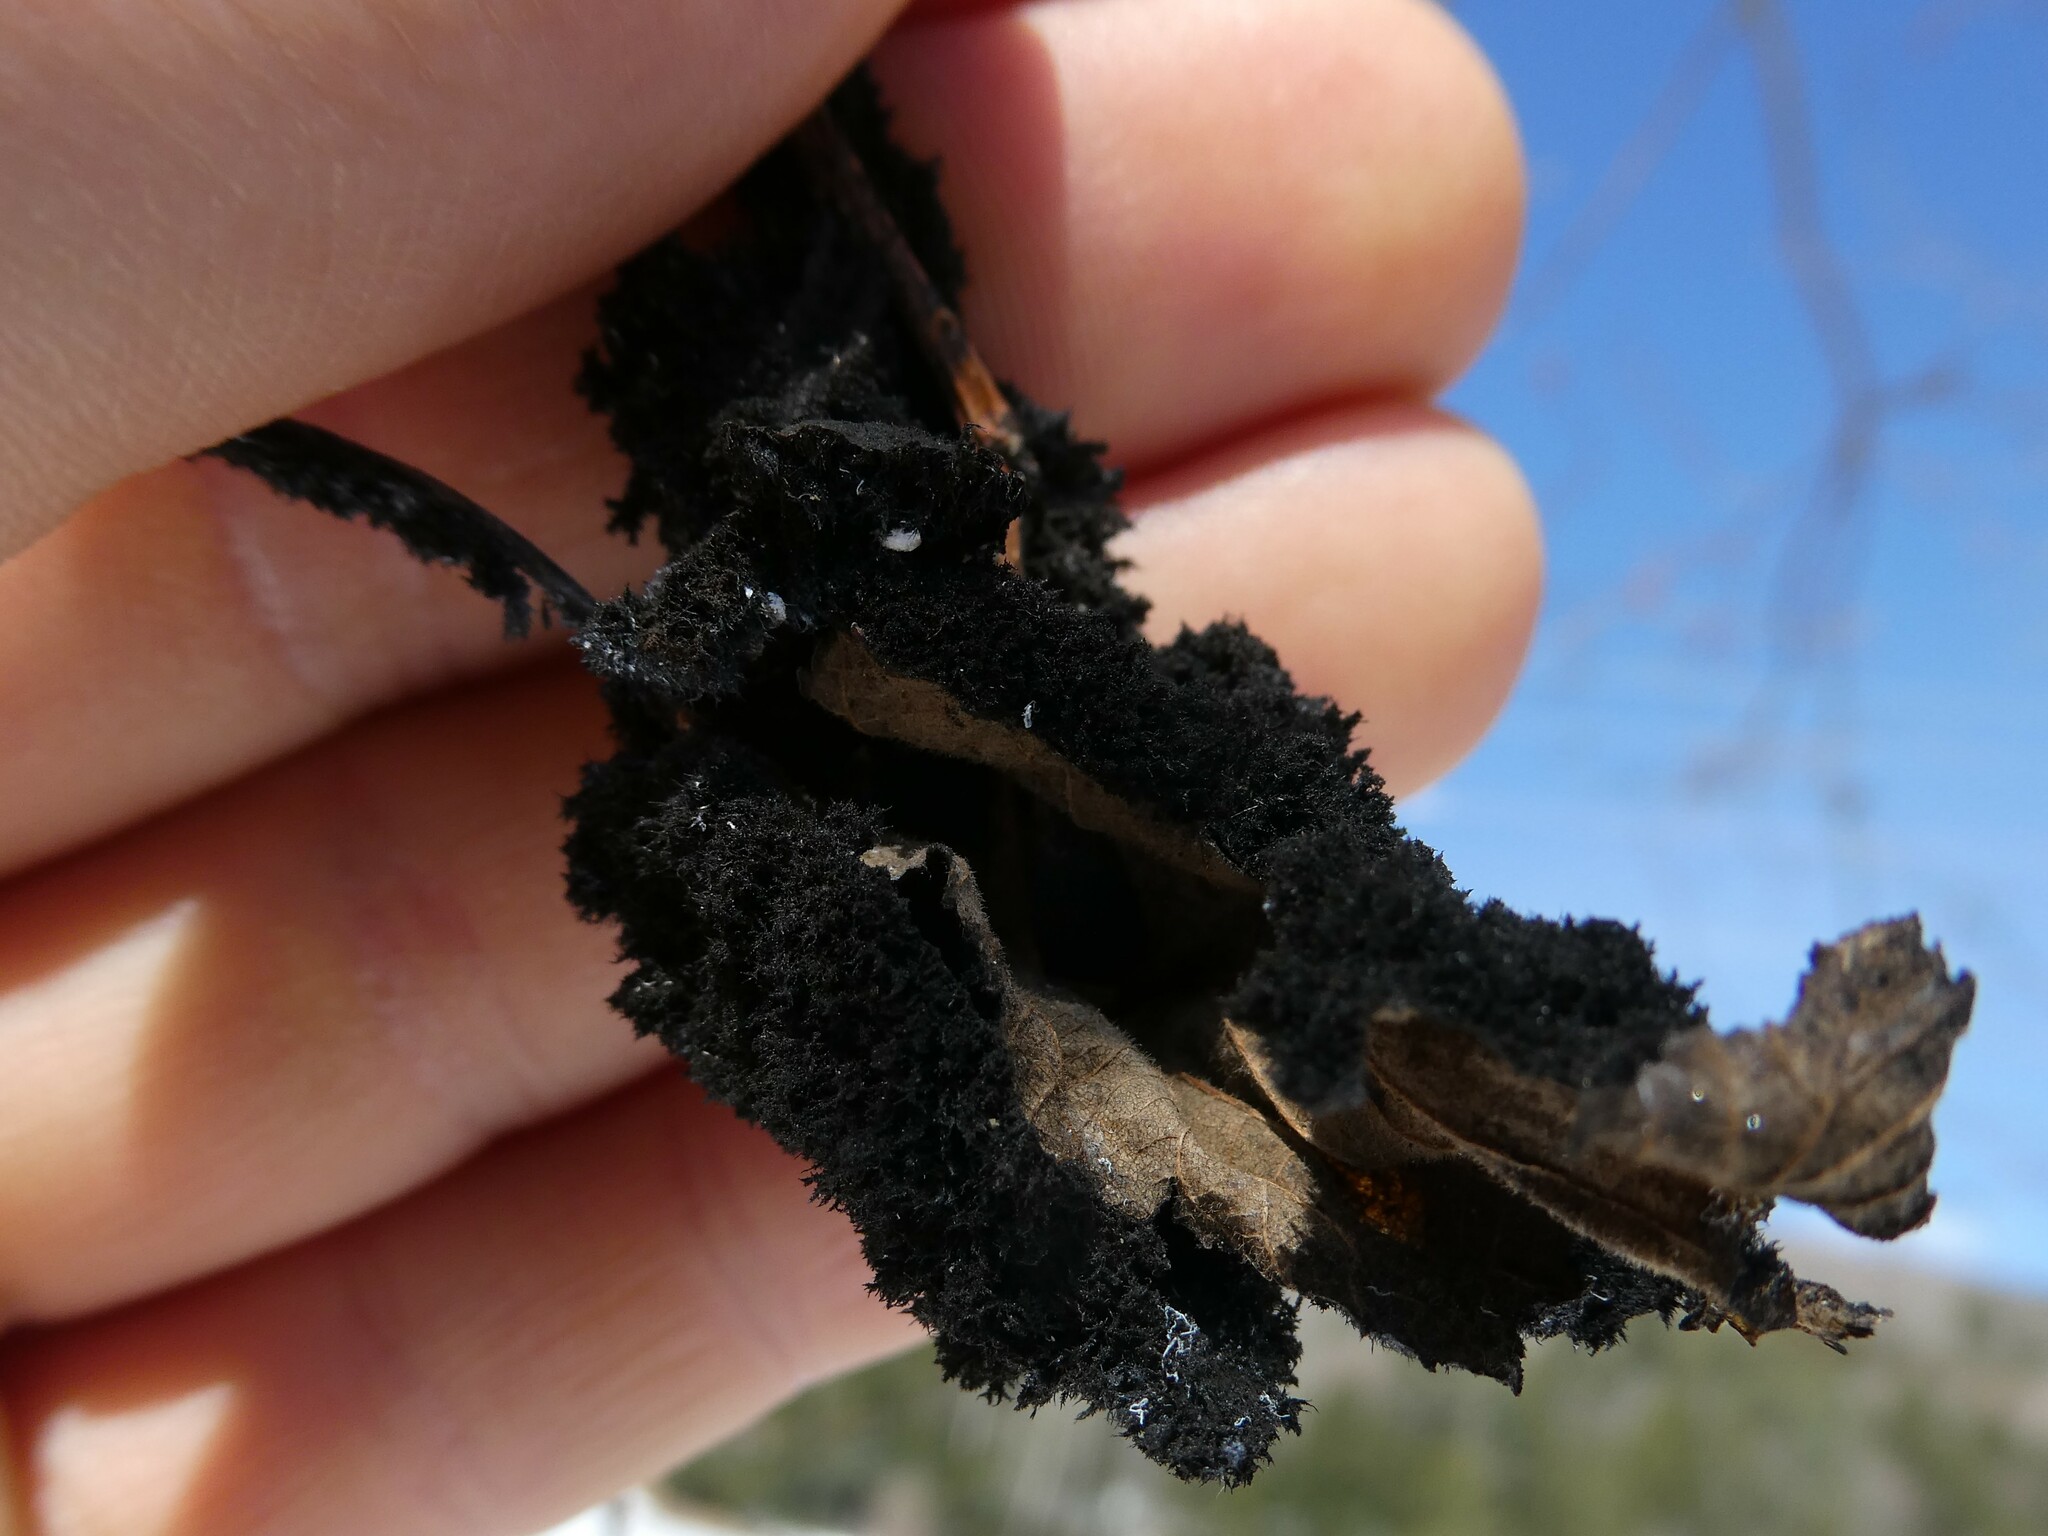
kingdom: Animalia
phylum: Arthropoda
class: Insecta
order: Hemiptera
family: Aphididae
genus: Prociphilus
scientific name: Prociphilus tessellatus
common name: Woolly alder aphid
